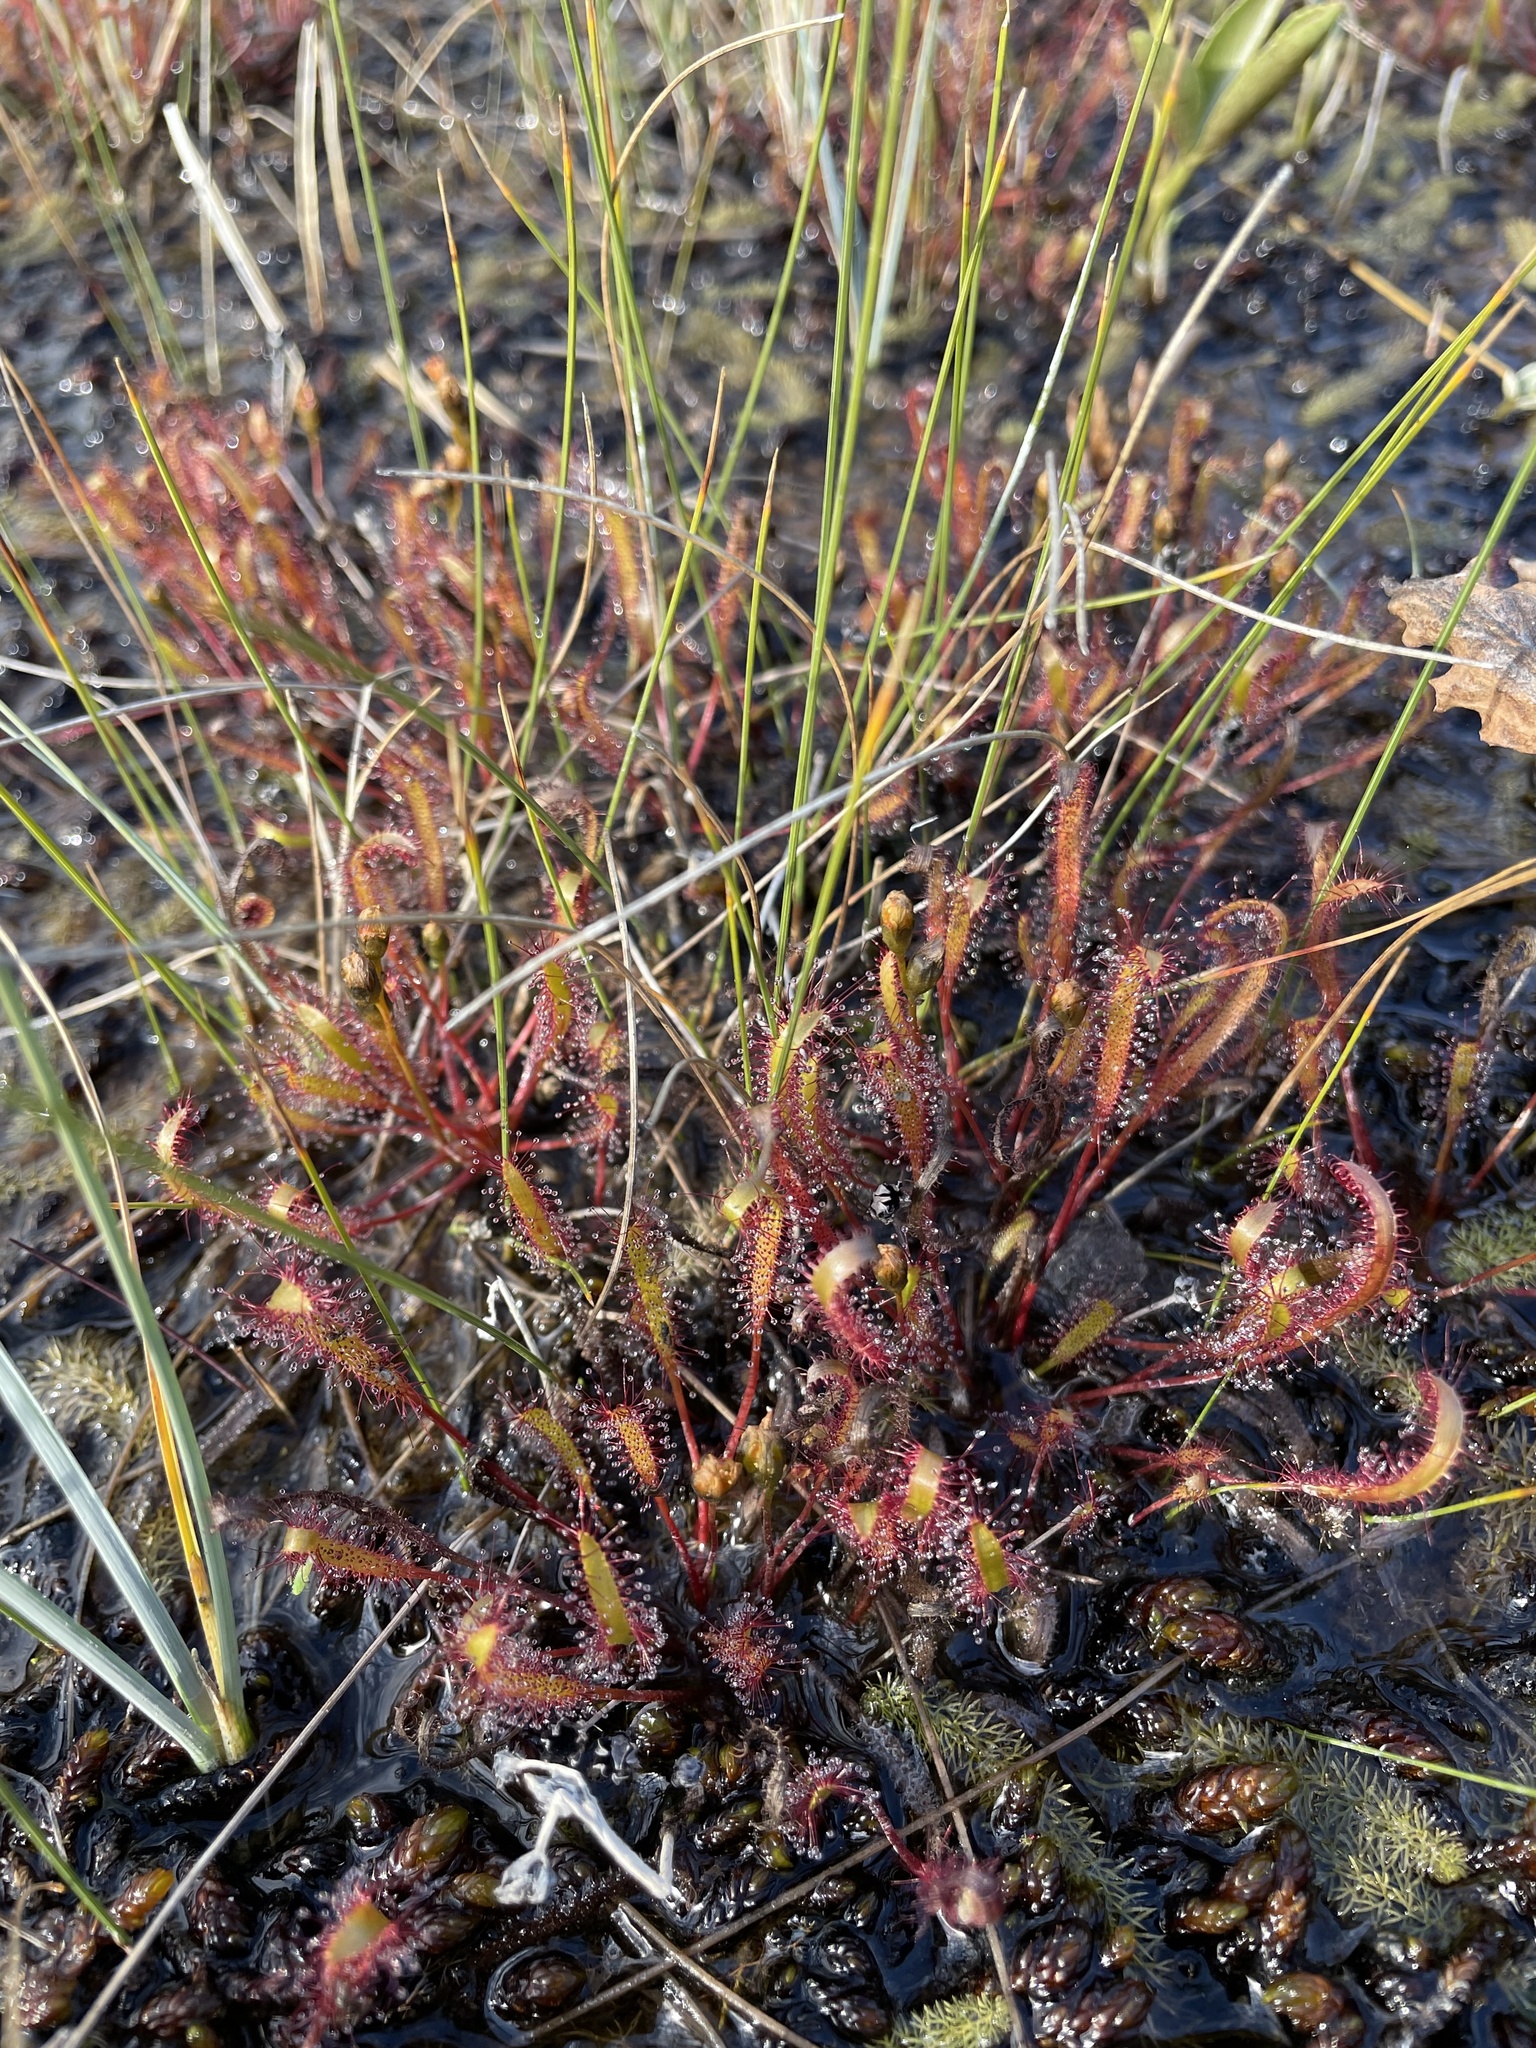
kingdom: Plantae
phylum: Tracheophyta
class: Magnoliopsida
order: Caryophyllales
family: Droseraceae
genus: Drosera
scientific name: Drosera linearis
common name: Linear-leaved sundew
